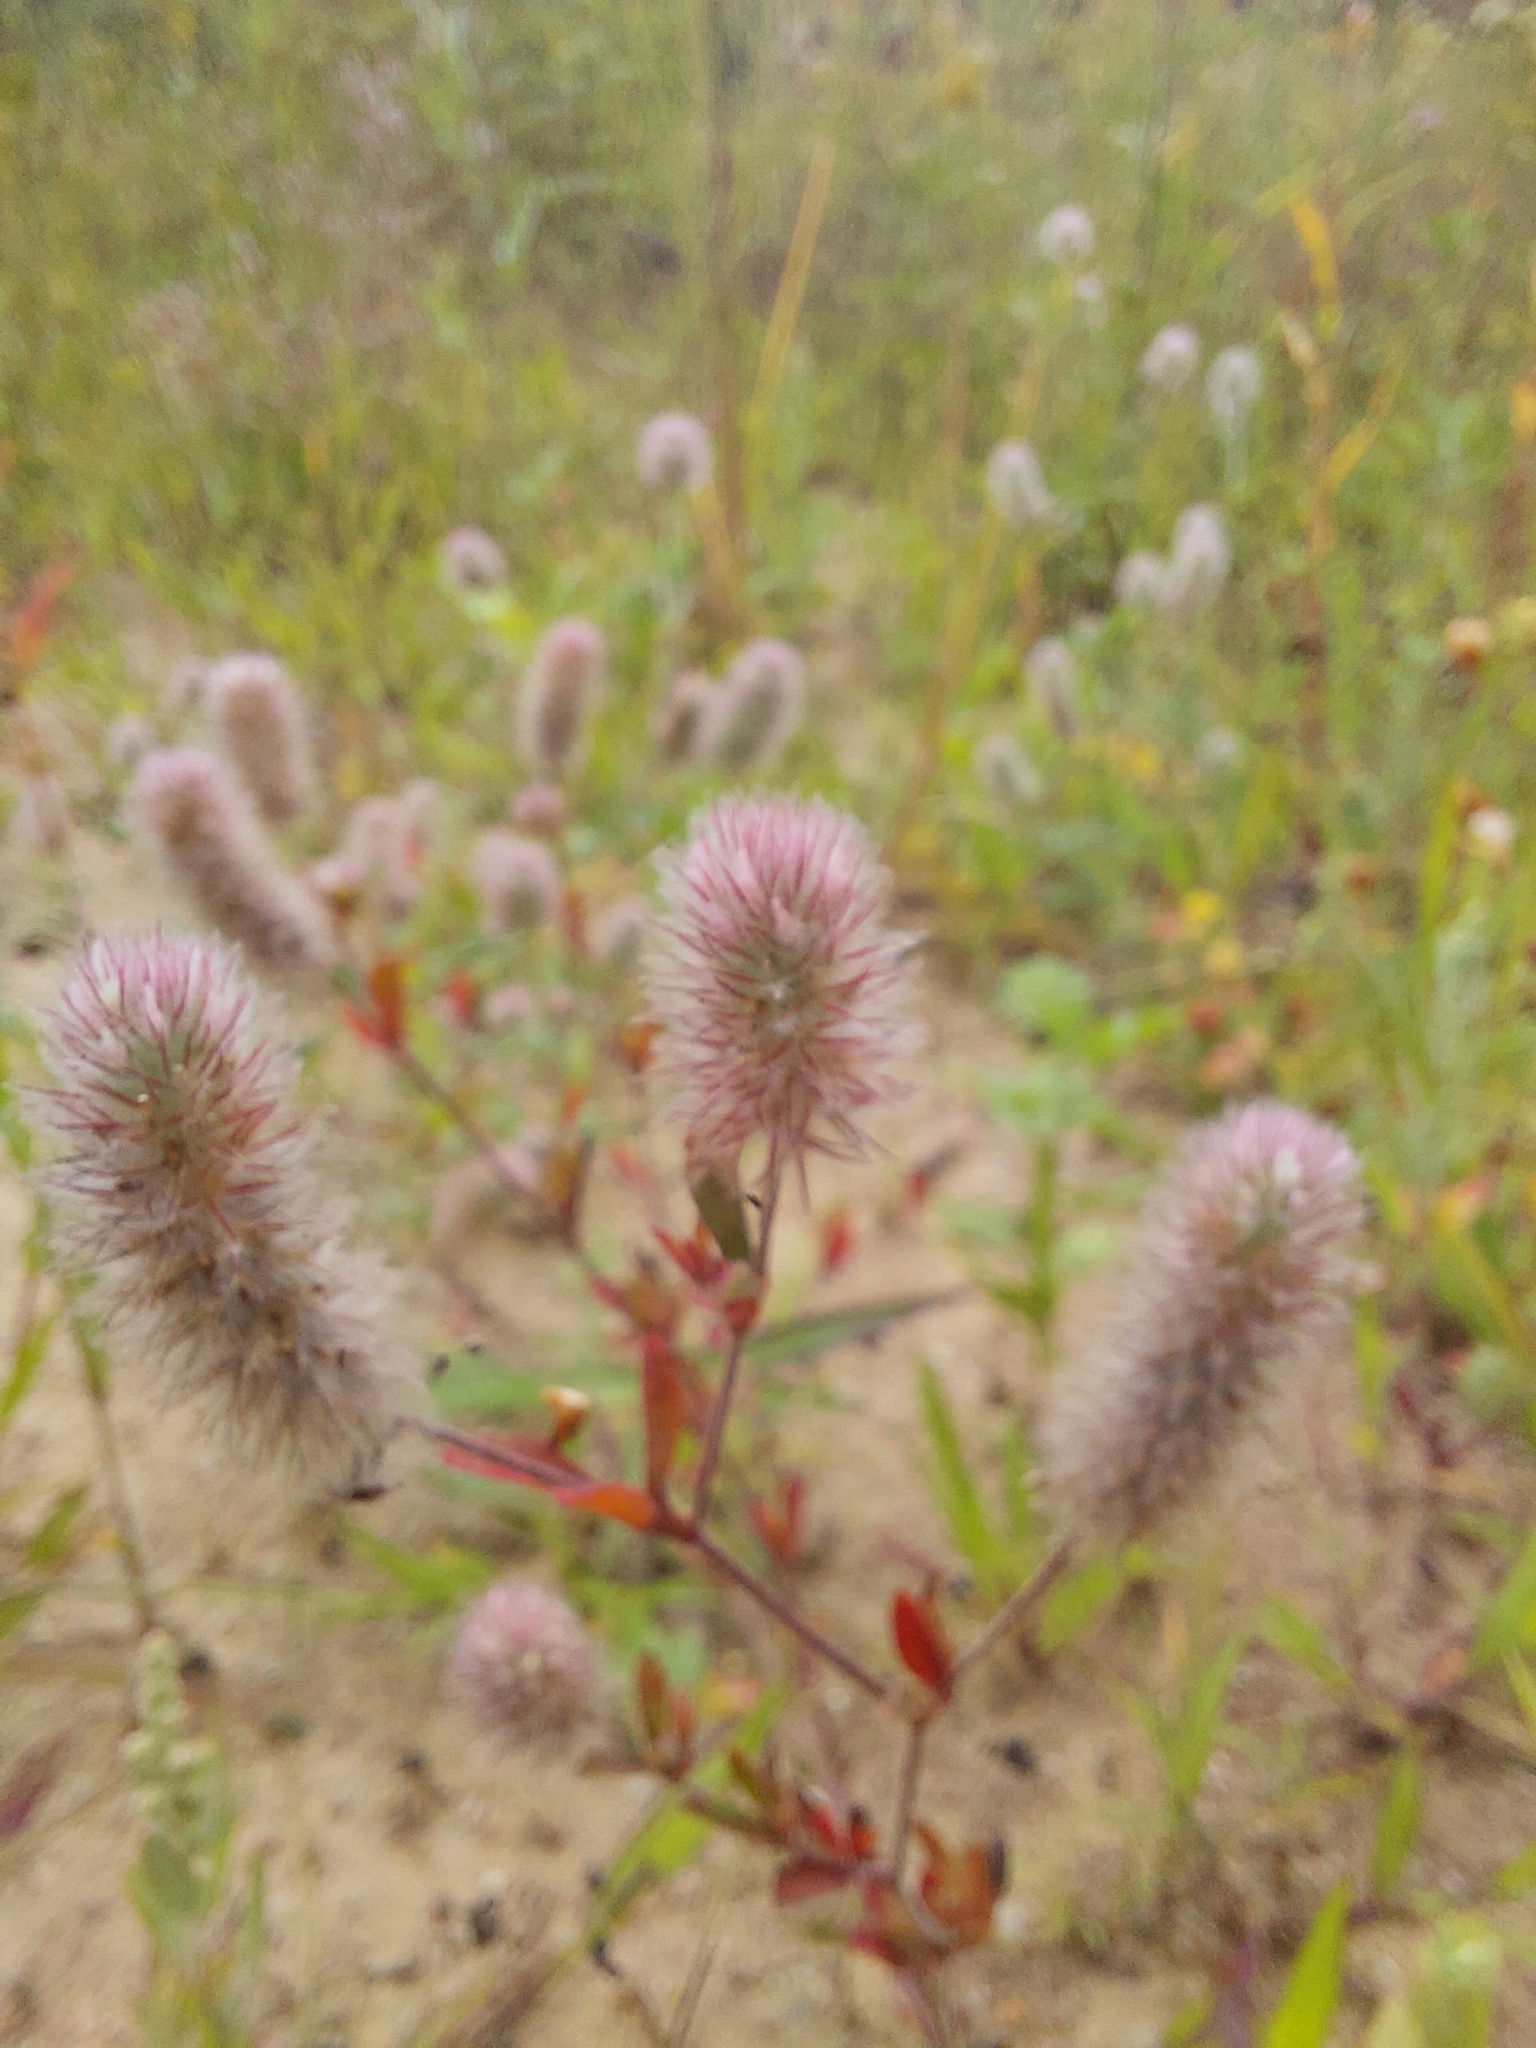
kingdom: Plantae
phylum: Tracheophyta
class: Magnoliopsida
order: Fabales
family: Fabaceae
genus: Trifolium
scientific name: Trifolium arvense
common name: Hare's-foot clover
